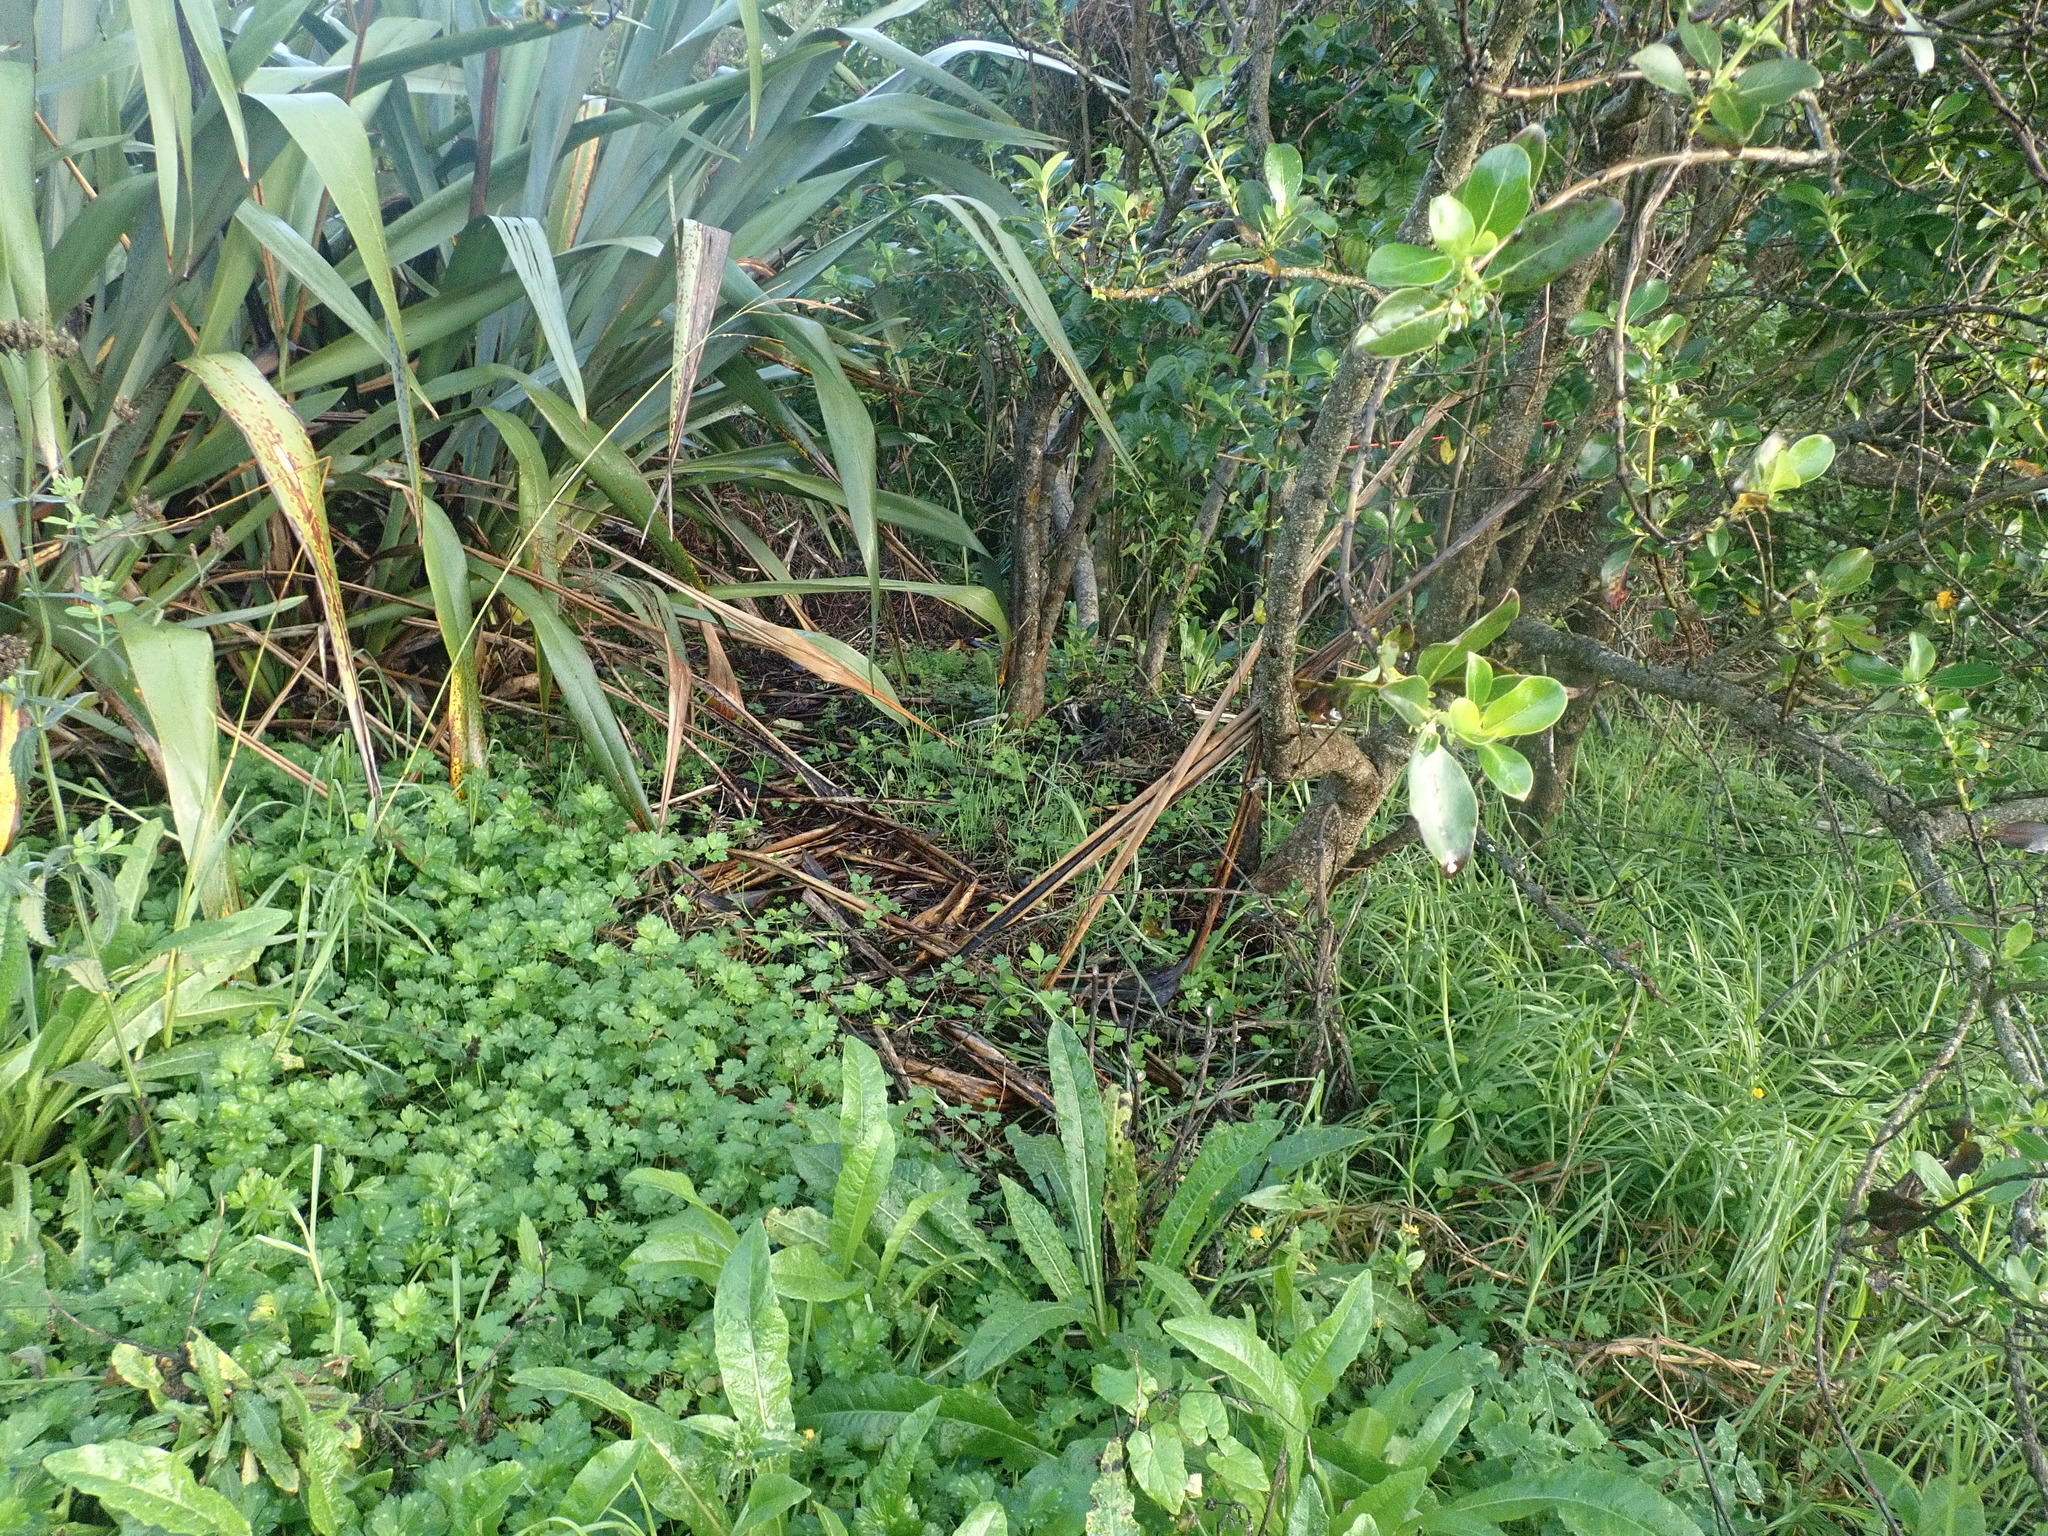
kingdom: Plantae
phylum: Tracheophyta
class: Magnoliopsida
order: Ranunculales
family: Ranunculaceae
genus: Ranunculus
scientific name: Ranunculus repens
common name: Creeping buttercup
